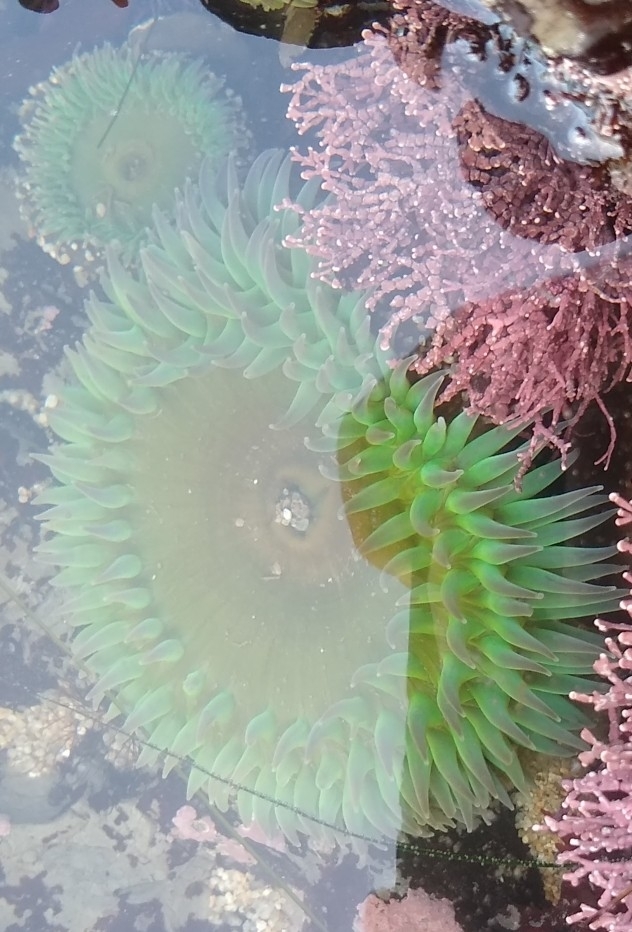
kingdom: Animalia
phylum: Cnidaria
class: Anthozoa
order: Actiniaria
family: Actiniidae
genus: Anthopleura
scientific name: Anthopleura xanthogrammica
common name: Giant green anemone
